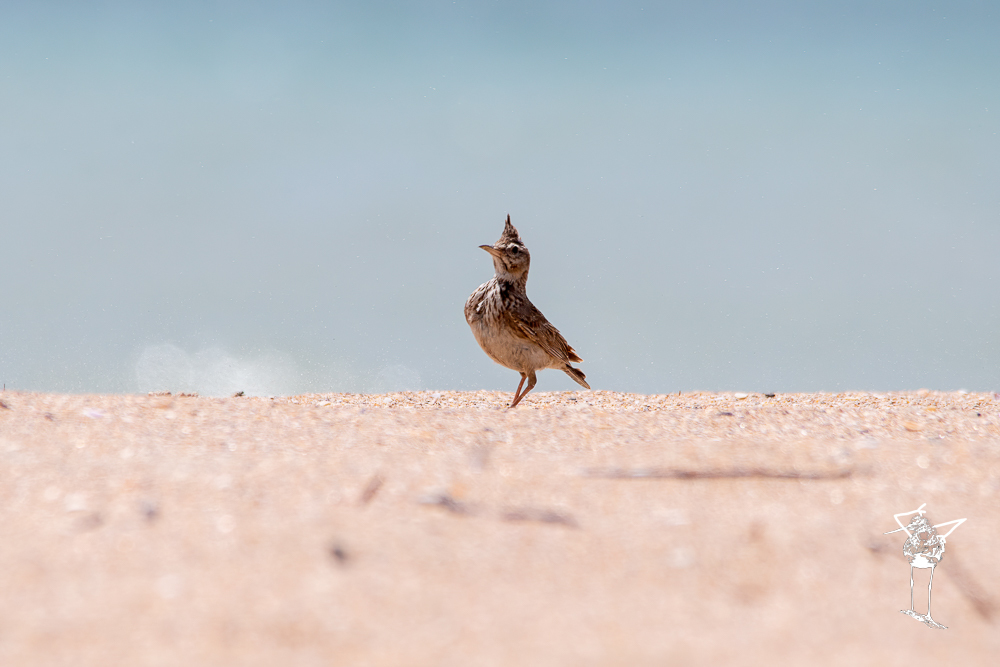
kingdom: Animalia
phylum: Chordata
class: Aves
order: Passeriformes
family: Alaudidae
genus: Galerida
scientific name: Galerida cristata
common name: Crested lark
